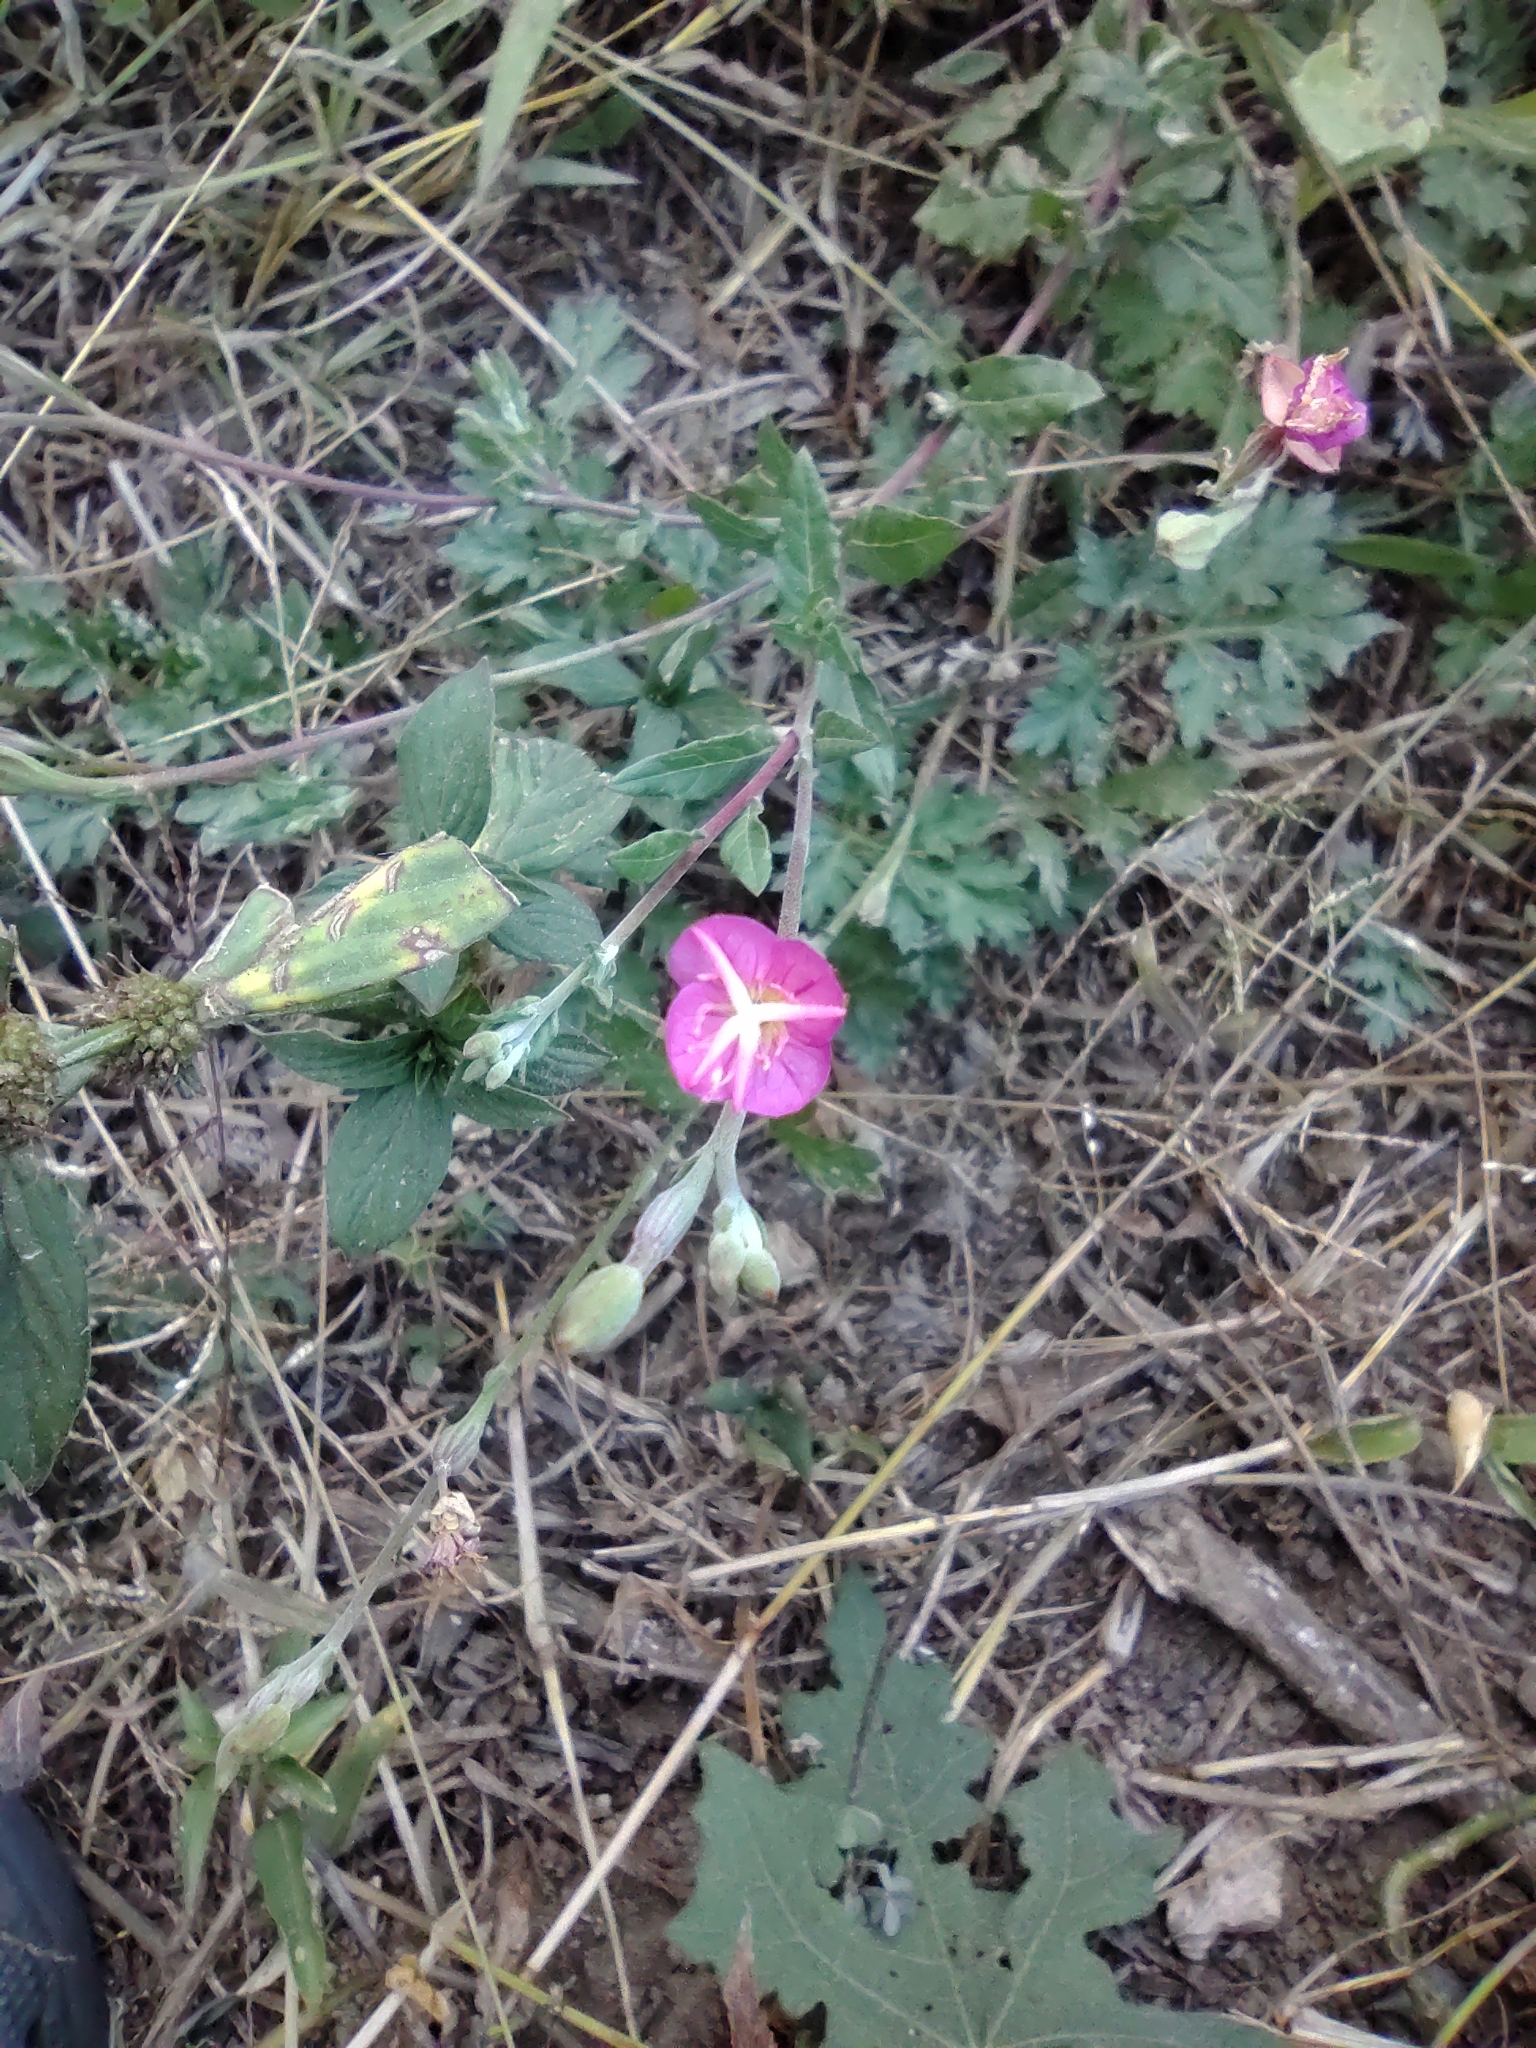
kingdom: Plantae
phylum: Tracheophyta
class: Magnoliopsida
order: Myrtales
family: Onagraceae
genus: Oenothera
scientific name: Oenothera rosea
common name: Rosy evening-primrose
